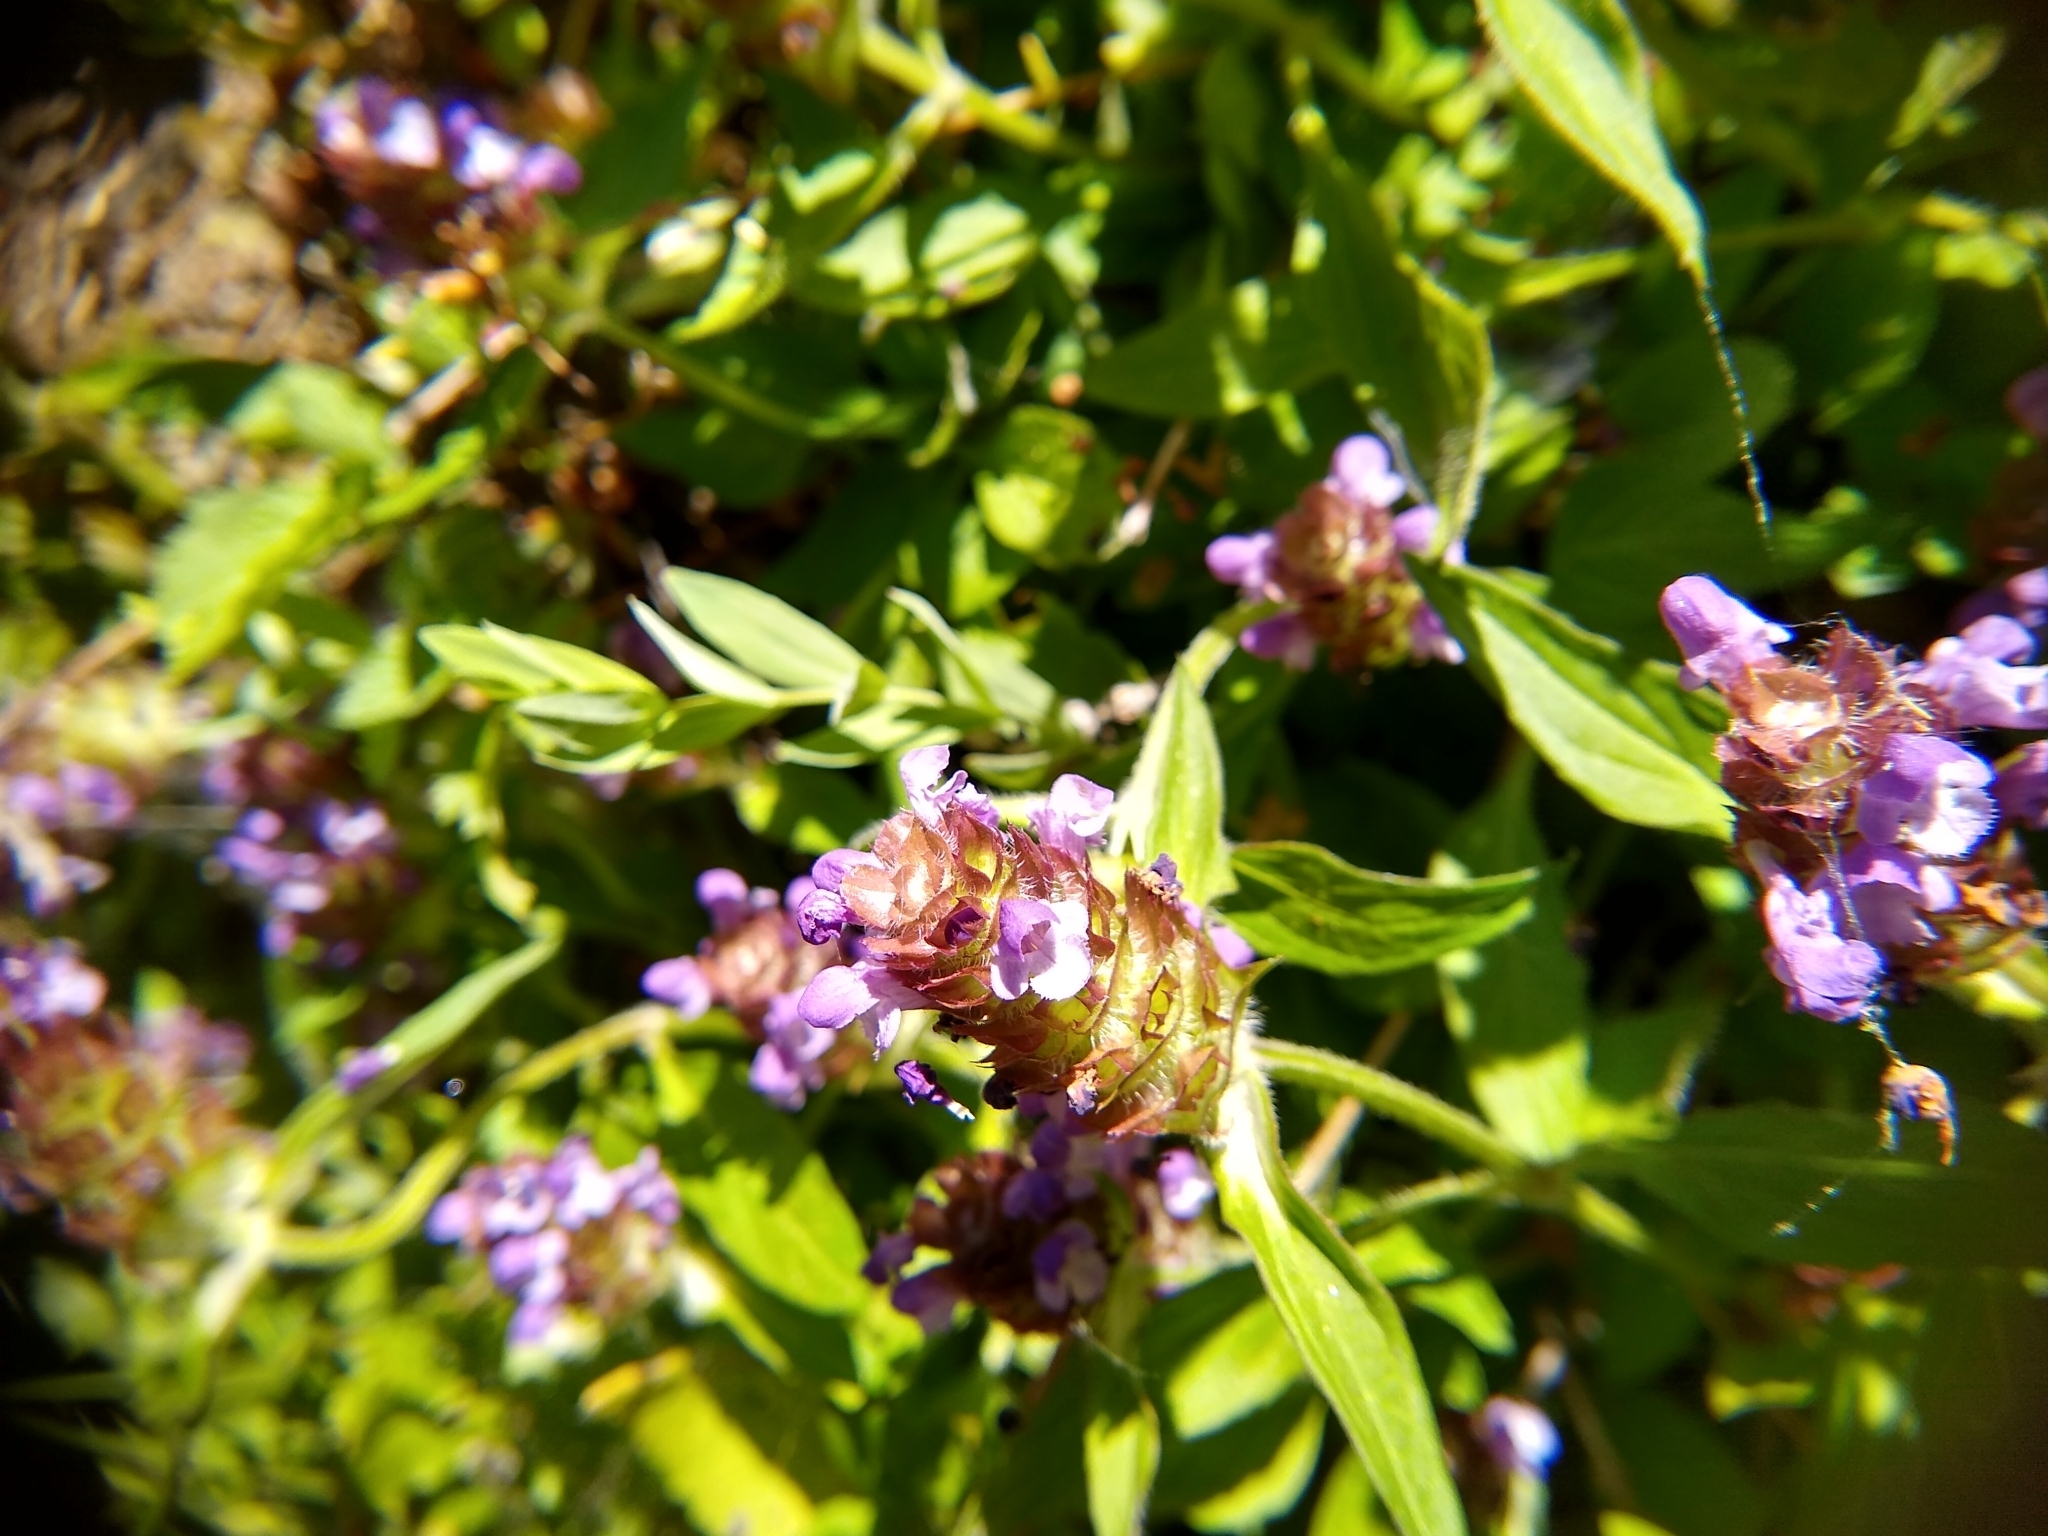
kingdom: Plantae
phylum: Tracheophyta
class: Magnoliopsida
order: Lamiales
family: Lamiaceae
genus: Prunella
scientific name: Prunella vulgaris
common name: Heal-all
